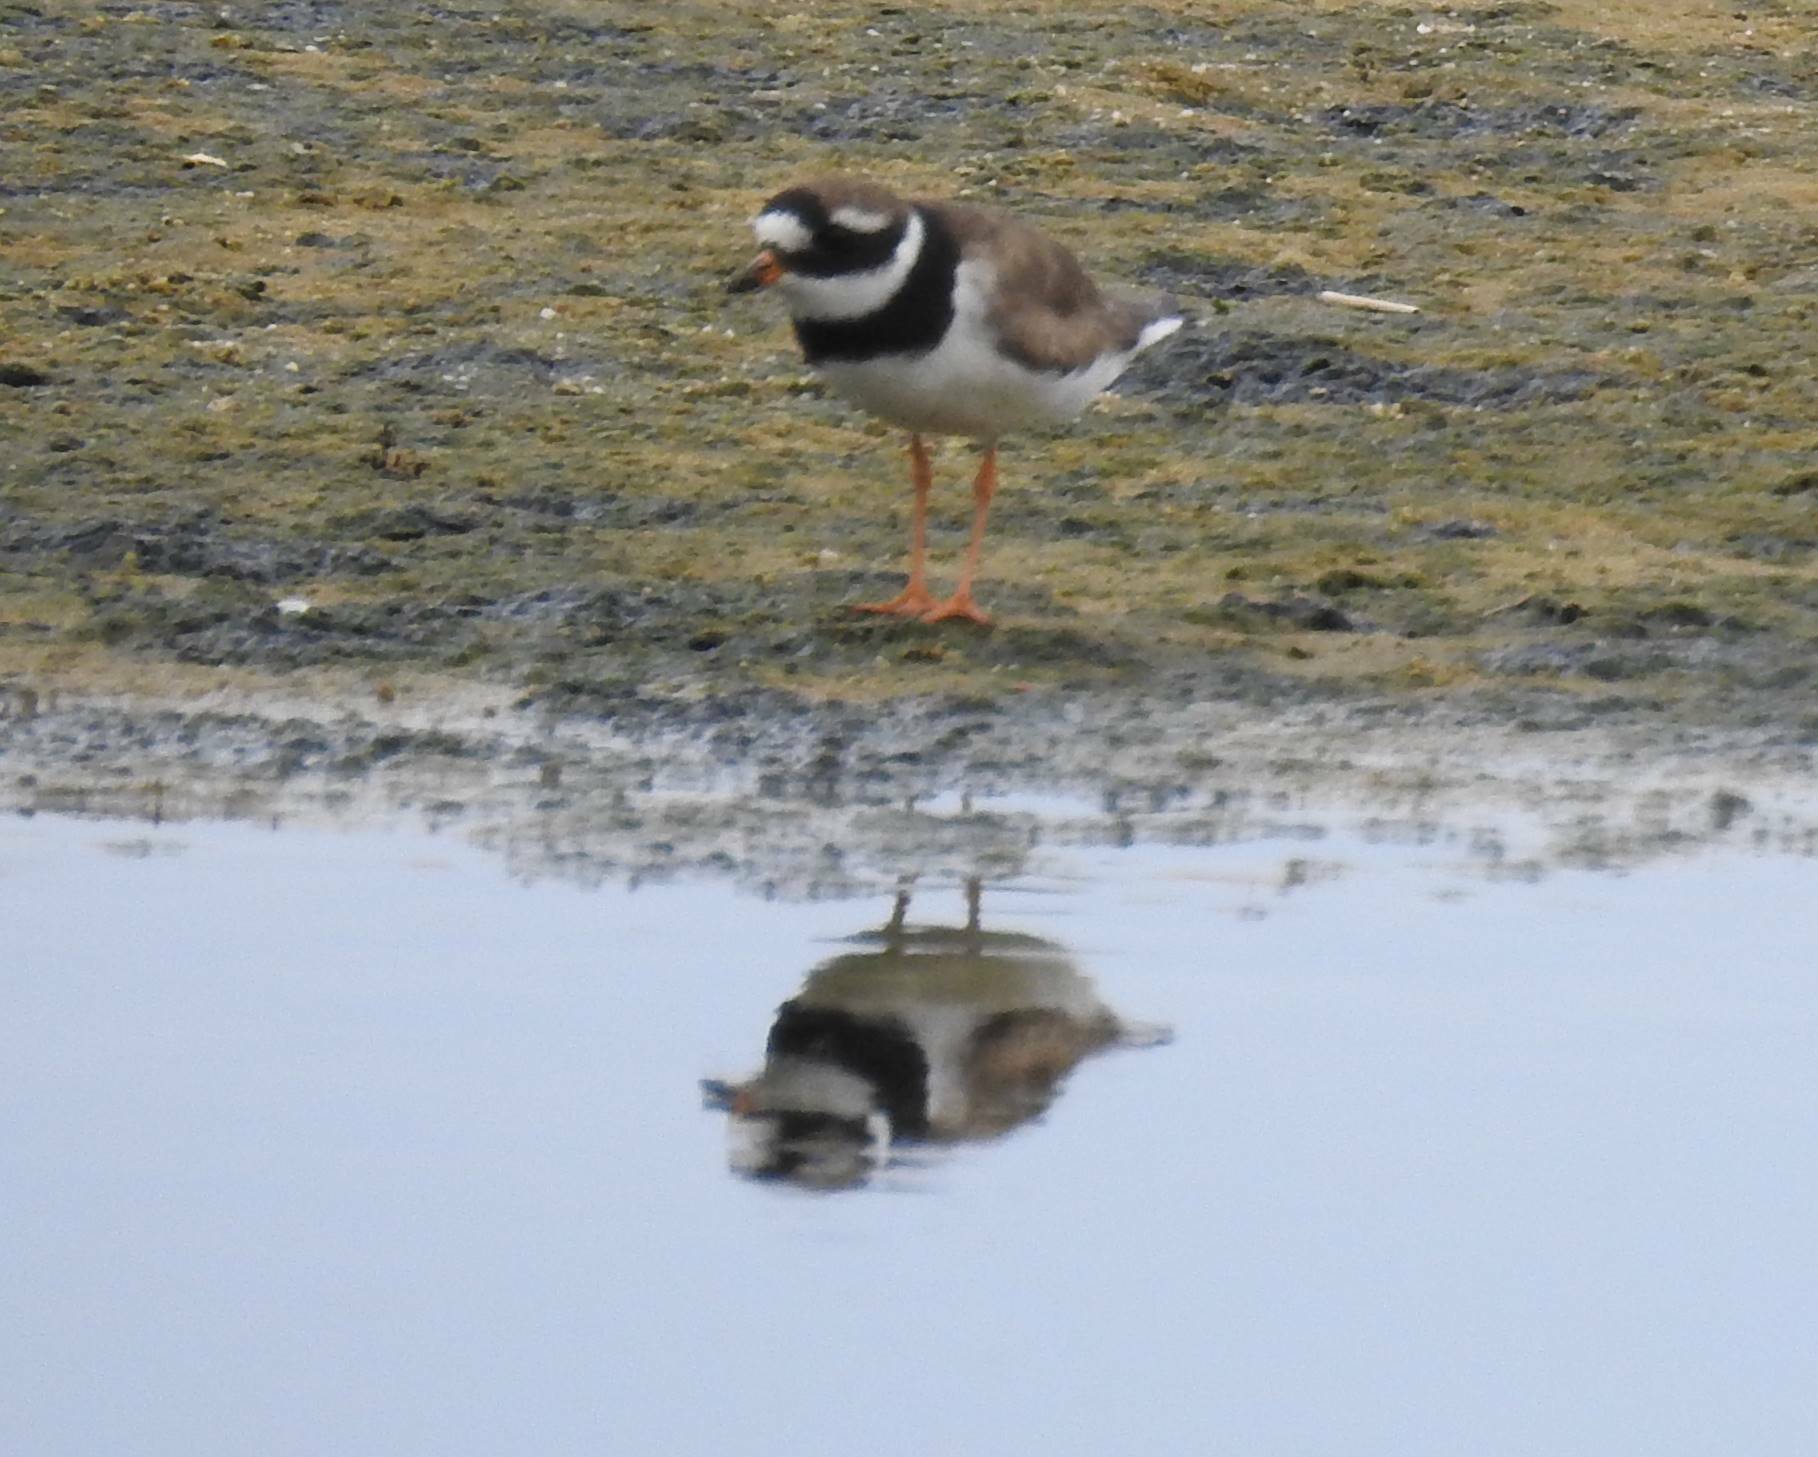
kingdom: Animalia
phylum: Chordata
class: Aves
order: Charadriiformes
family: Charadriidae
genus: Charadrius
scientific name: Charadrius hiaticula
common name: Common ringed plover
